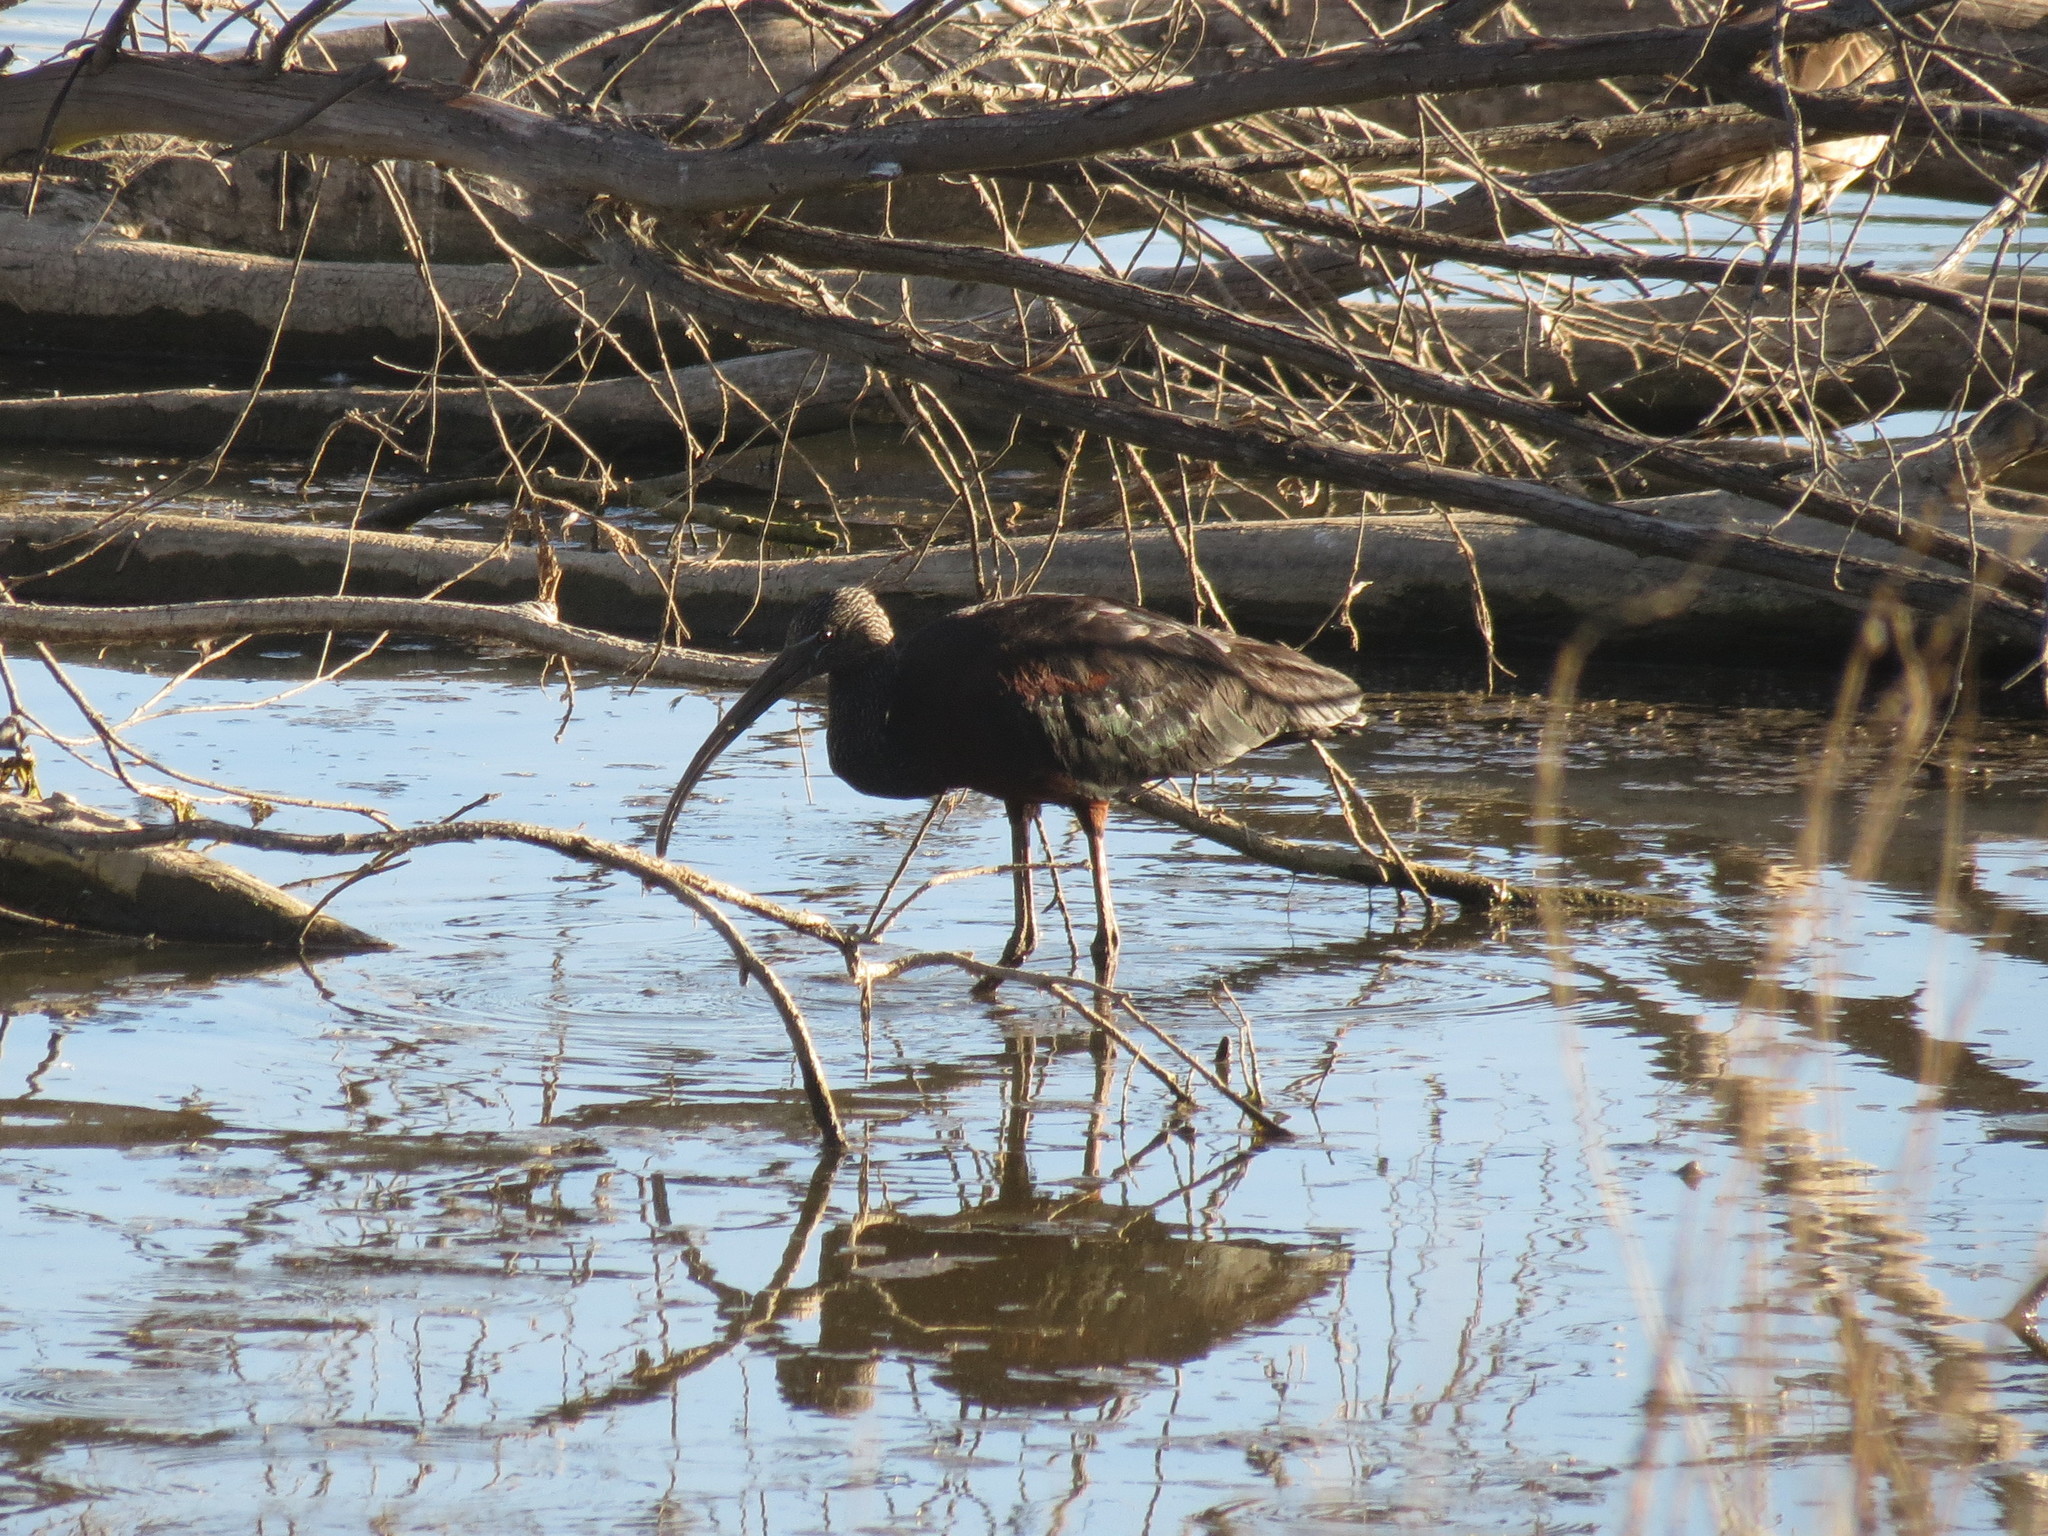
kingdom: Animalia
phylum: Chordata
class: Aves
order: Pelecaniformes
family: Threskiornithidae
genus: Plegadis
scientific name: Plegadis falcinellus
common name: Glossy ibis
